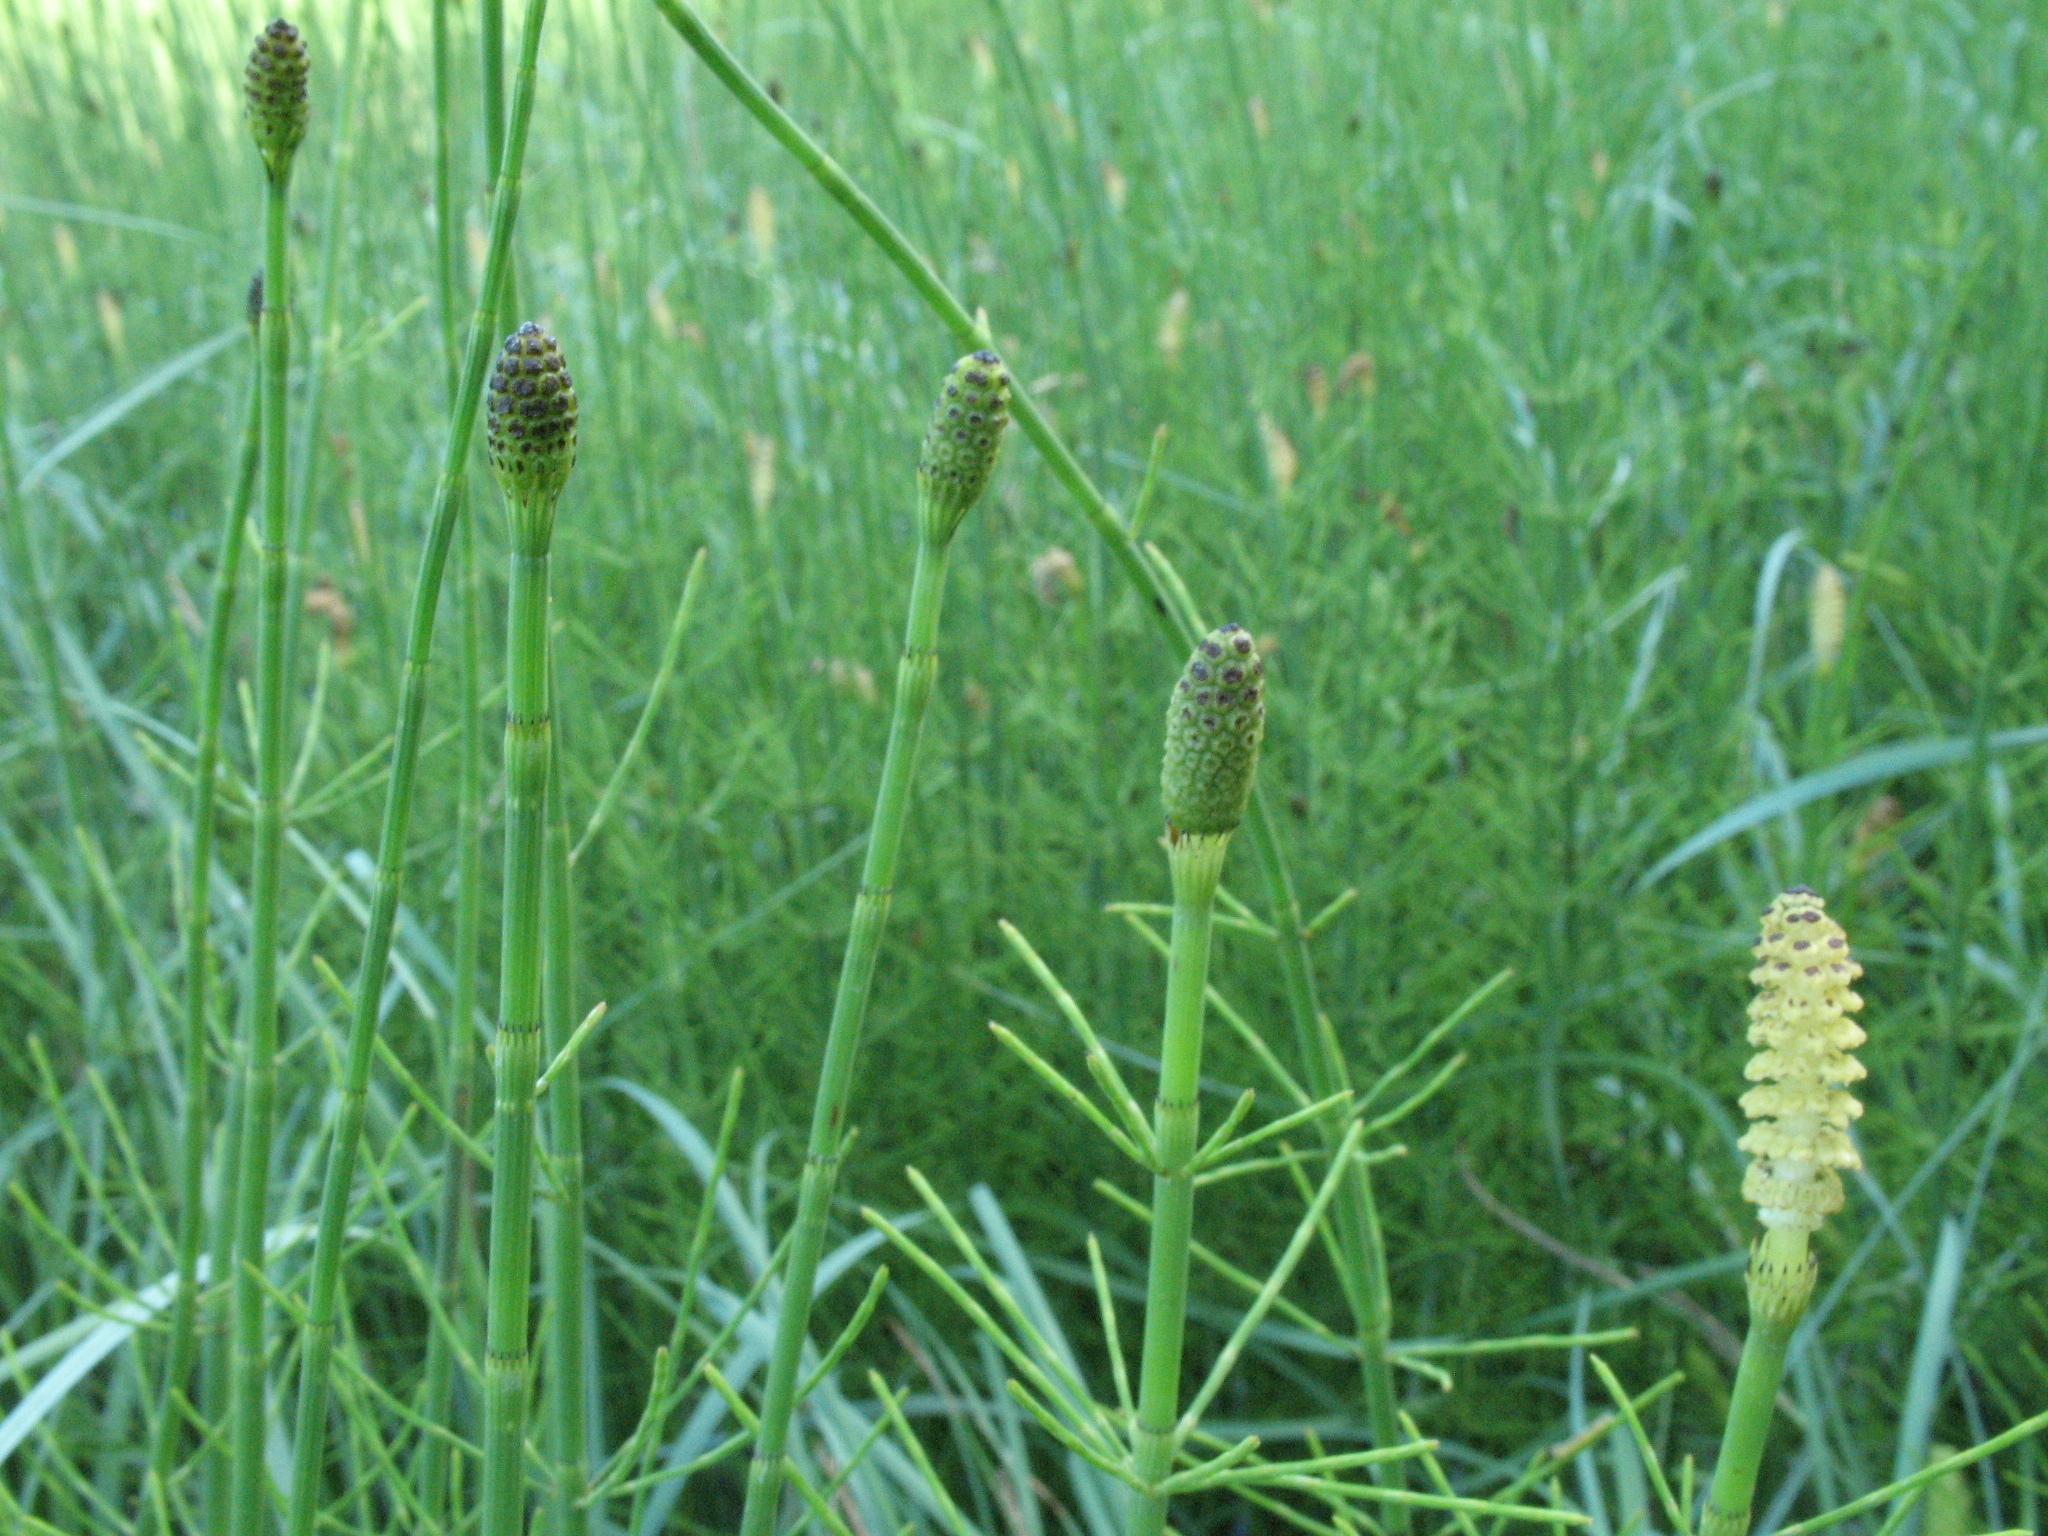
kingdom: Plantae
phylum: Tracheophyta
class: Polypodiopsida
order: Equisetales
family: Equisetaceae
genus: Equisetum
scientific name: Equisetum fluviatile
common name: Water horsetail
